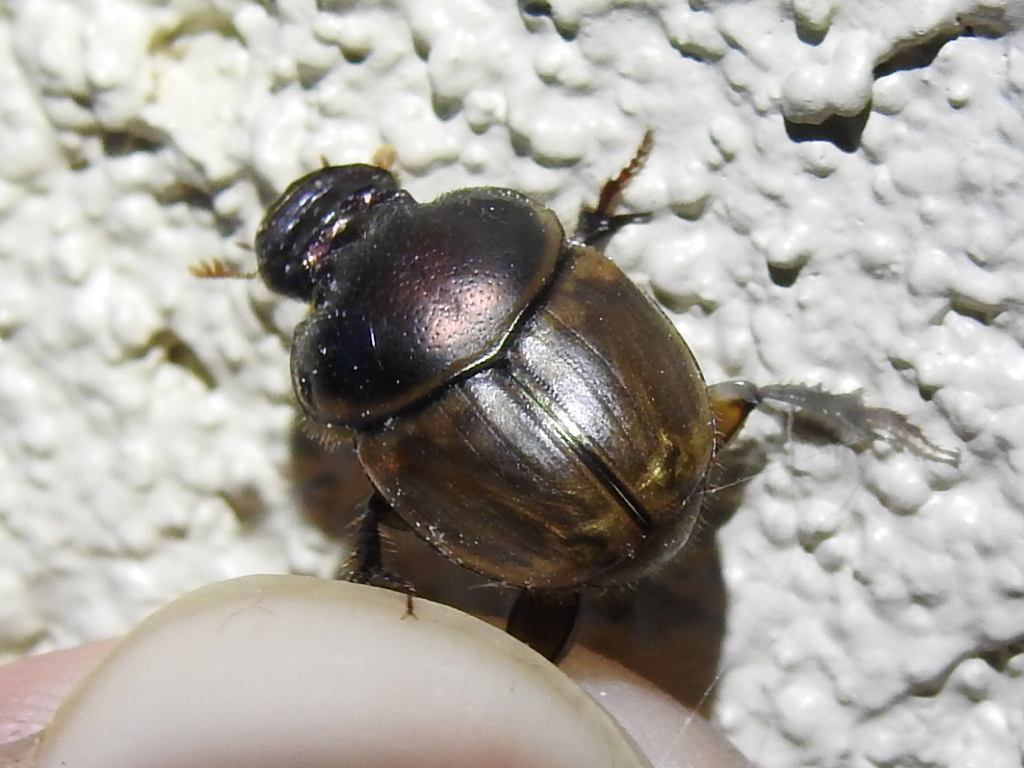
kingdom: Animalia
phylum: Arthropoda
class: Insecta
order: Coleoptera
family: Scarabaeidae
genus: Digitonthophagus
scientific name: Digitonthophagus gazella
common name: Brown dung beetle
